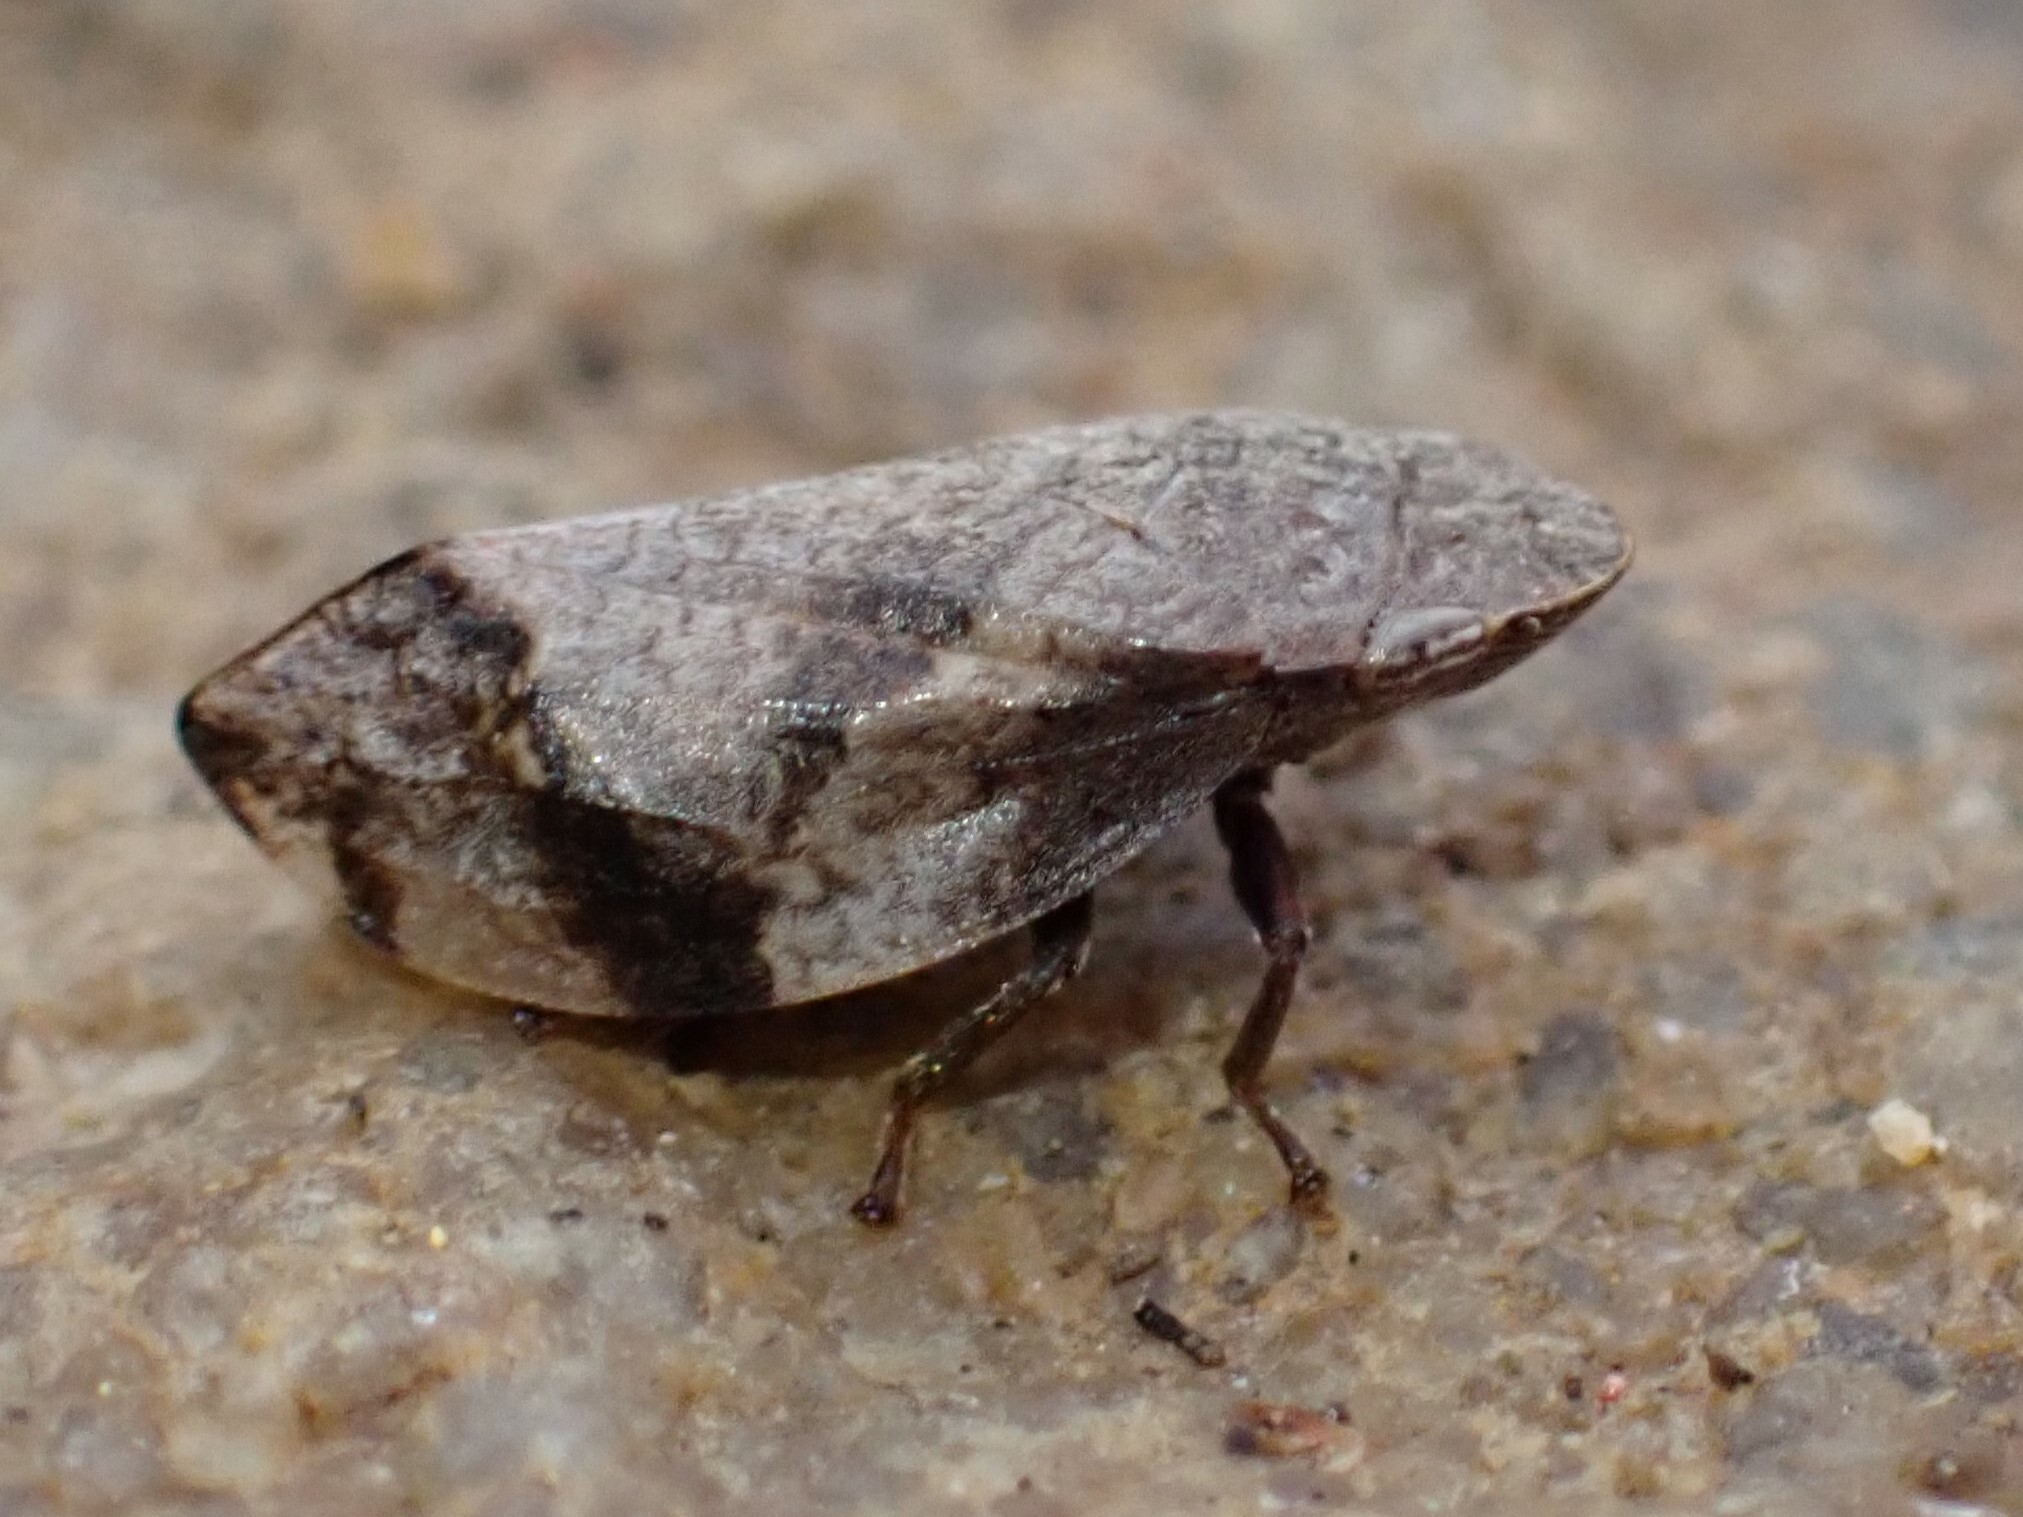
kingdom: Animalia
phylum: Arthropoda
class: Insecta
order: Hemiptera
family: Aphrophoridae
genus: Lepyronia
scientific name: Lepyronia quadrangularis
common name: Diamond-backed spittlebug
